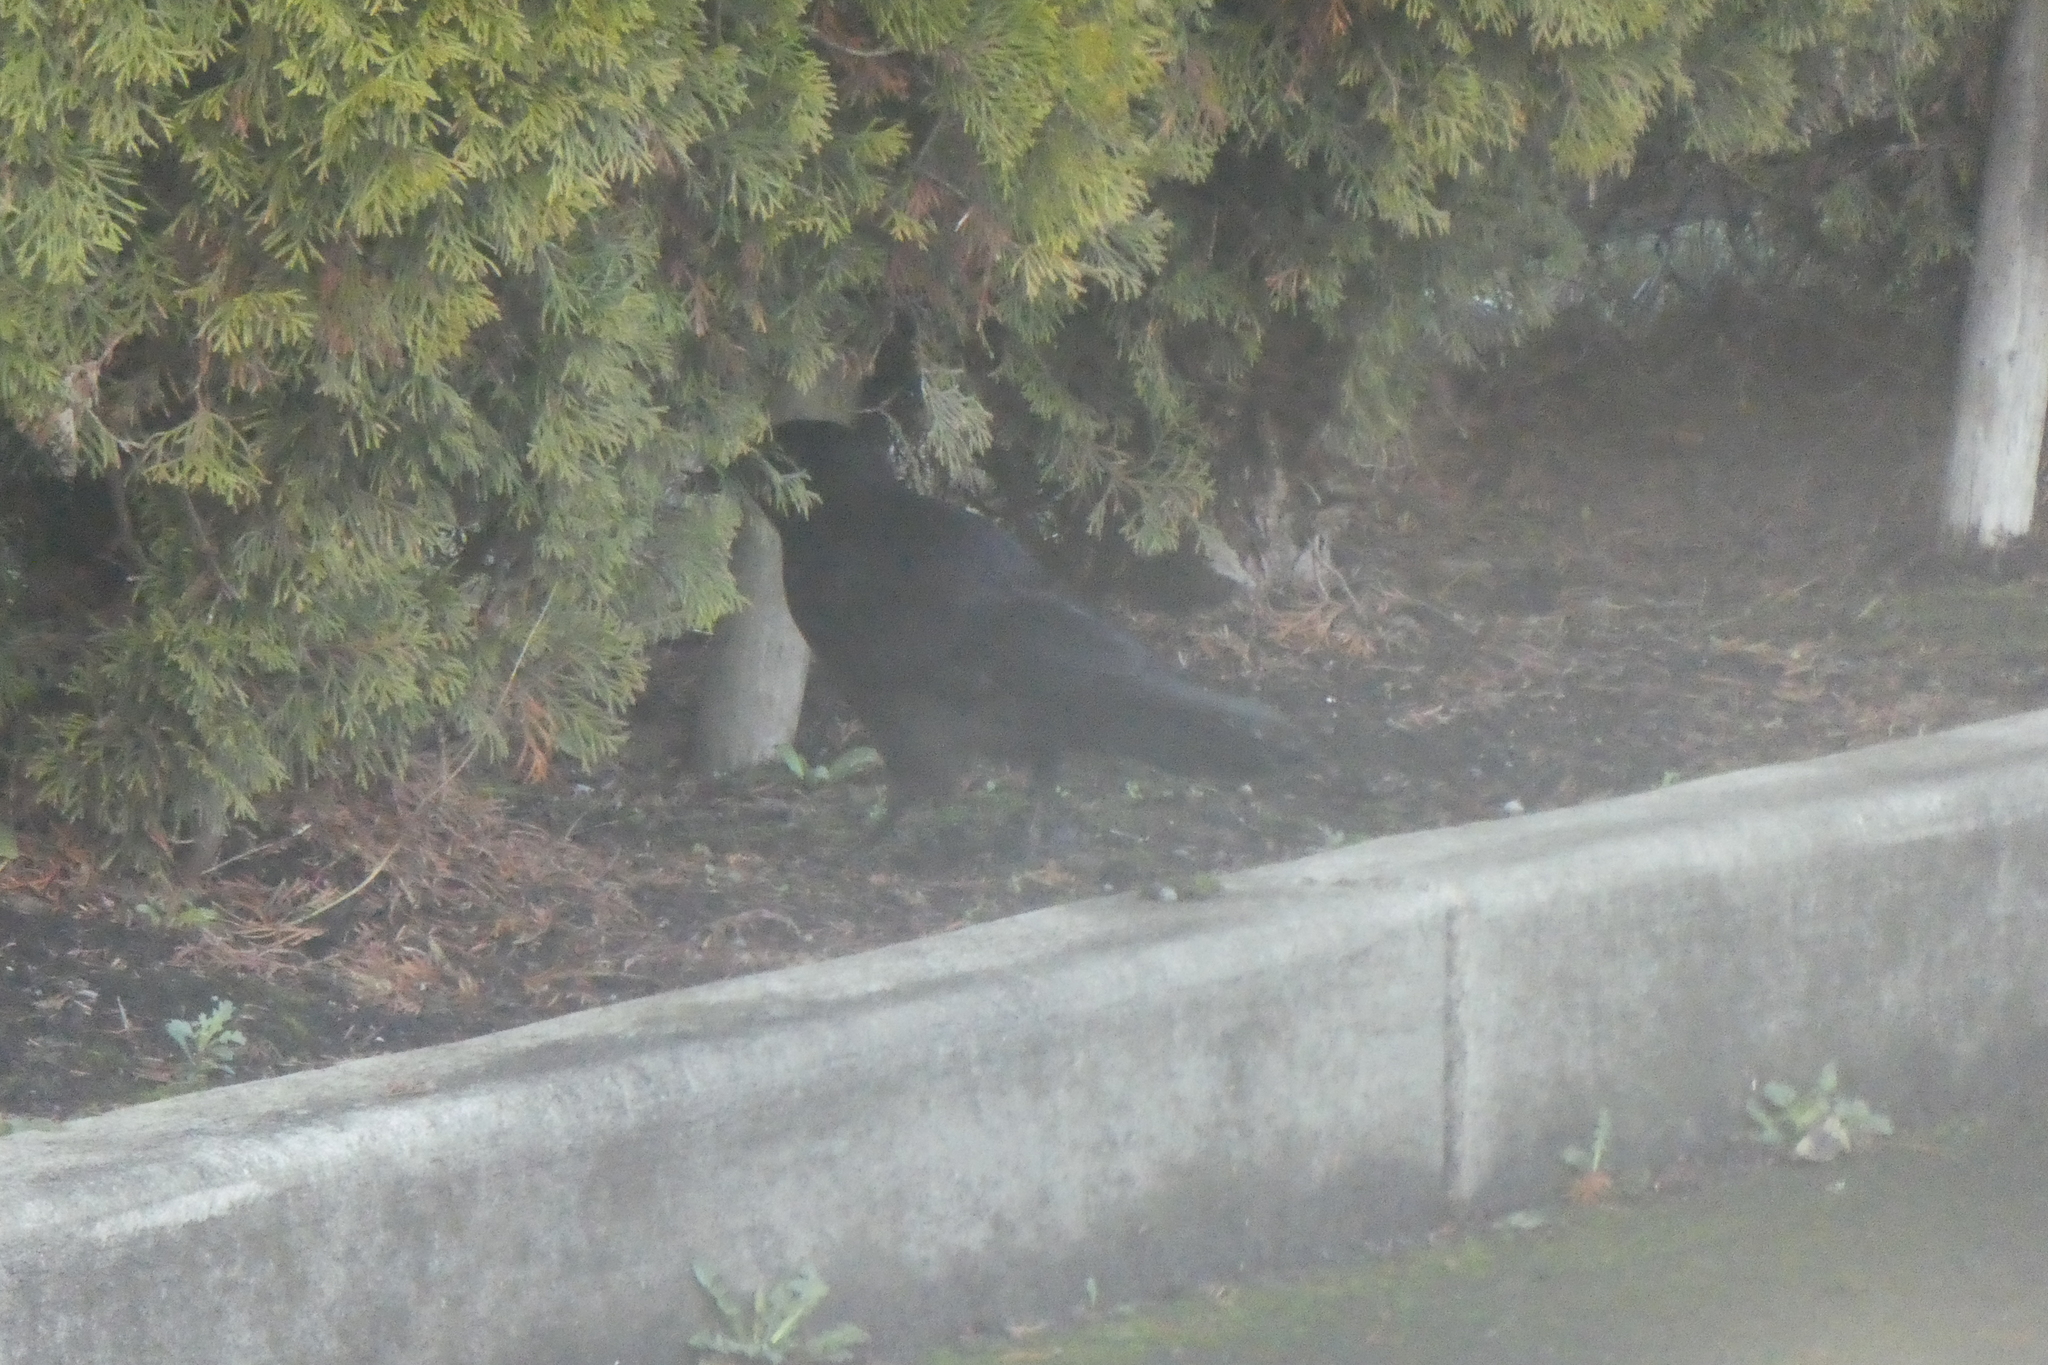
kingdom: Animalia
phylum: Chordata
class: Aves
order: Passeriformes
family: Corvidae
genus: Corvus
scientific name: Corvus brachyrhynchos
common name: American crow
